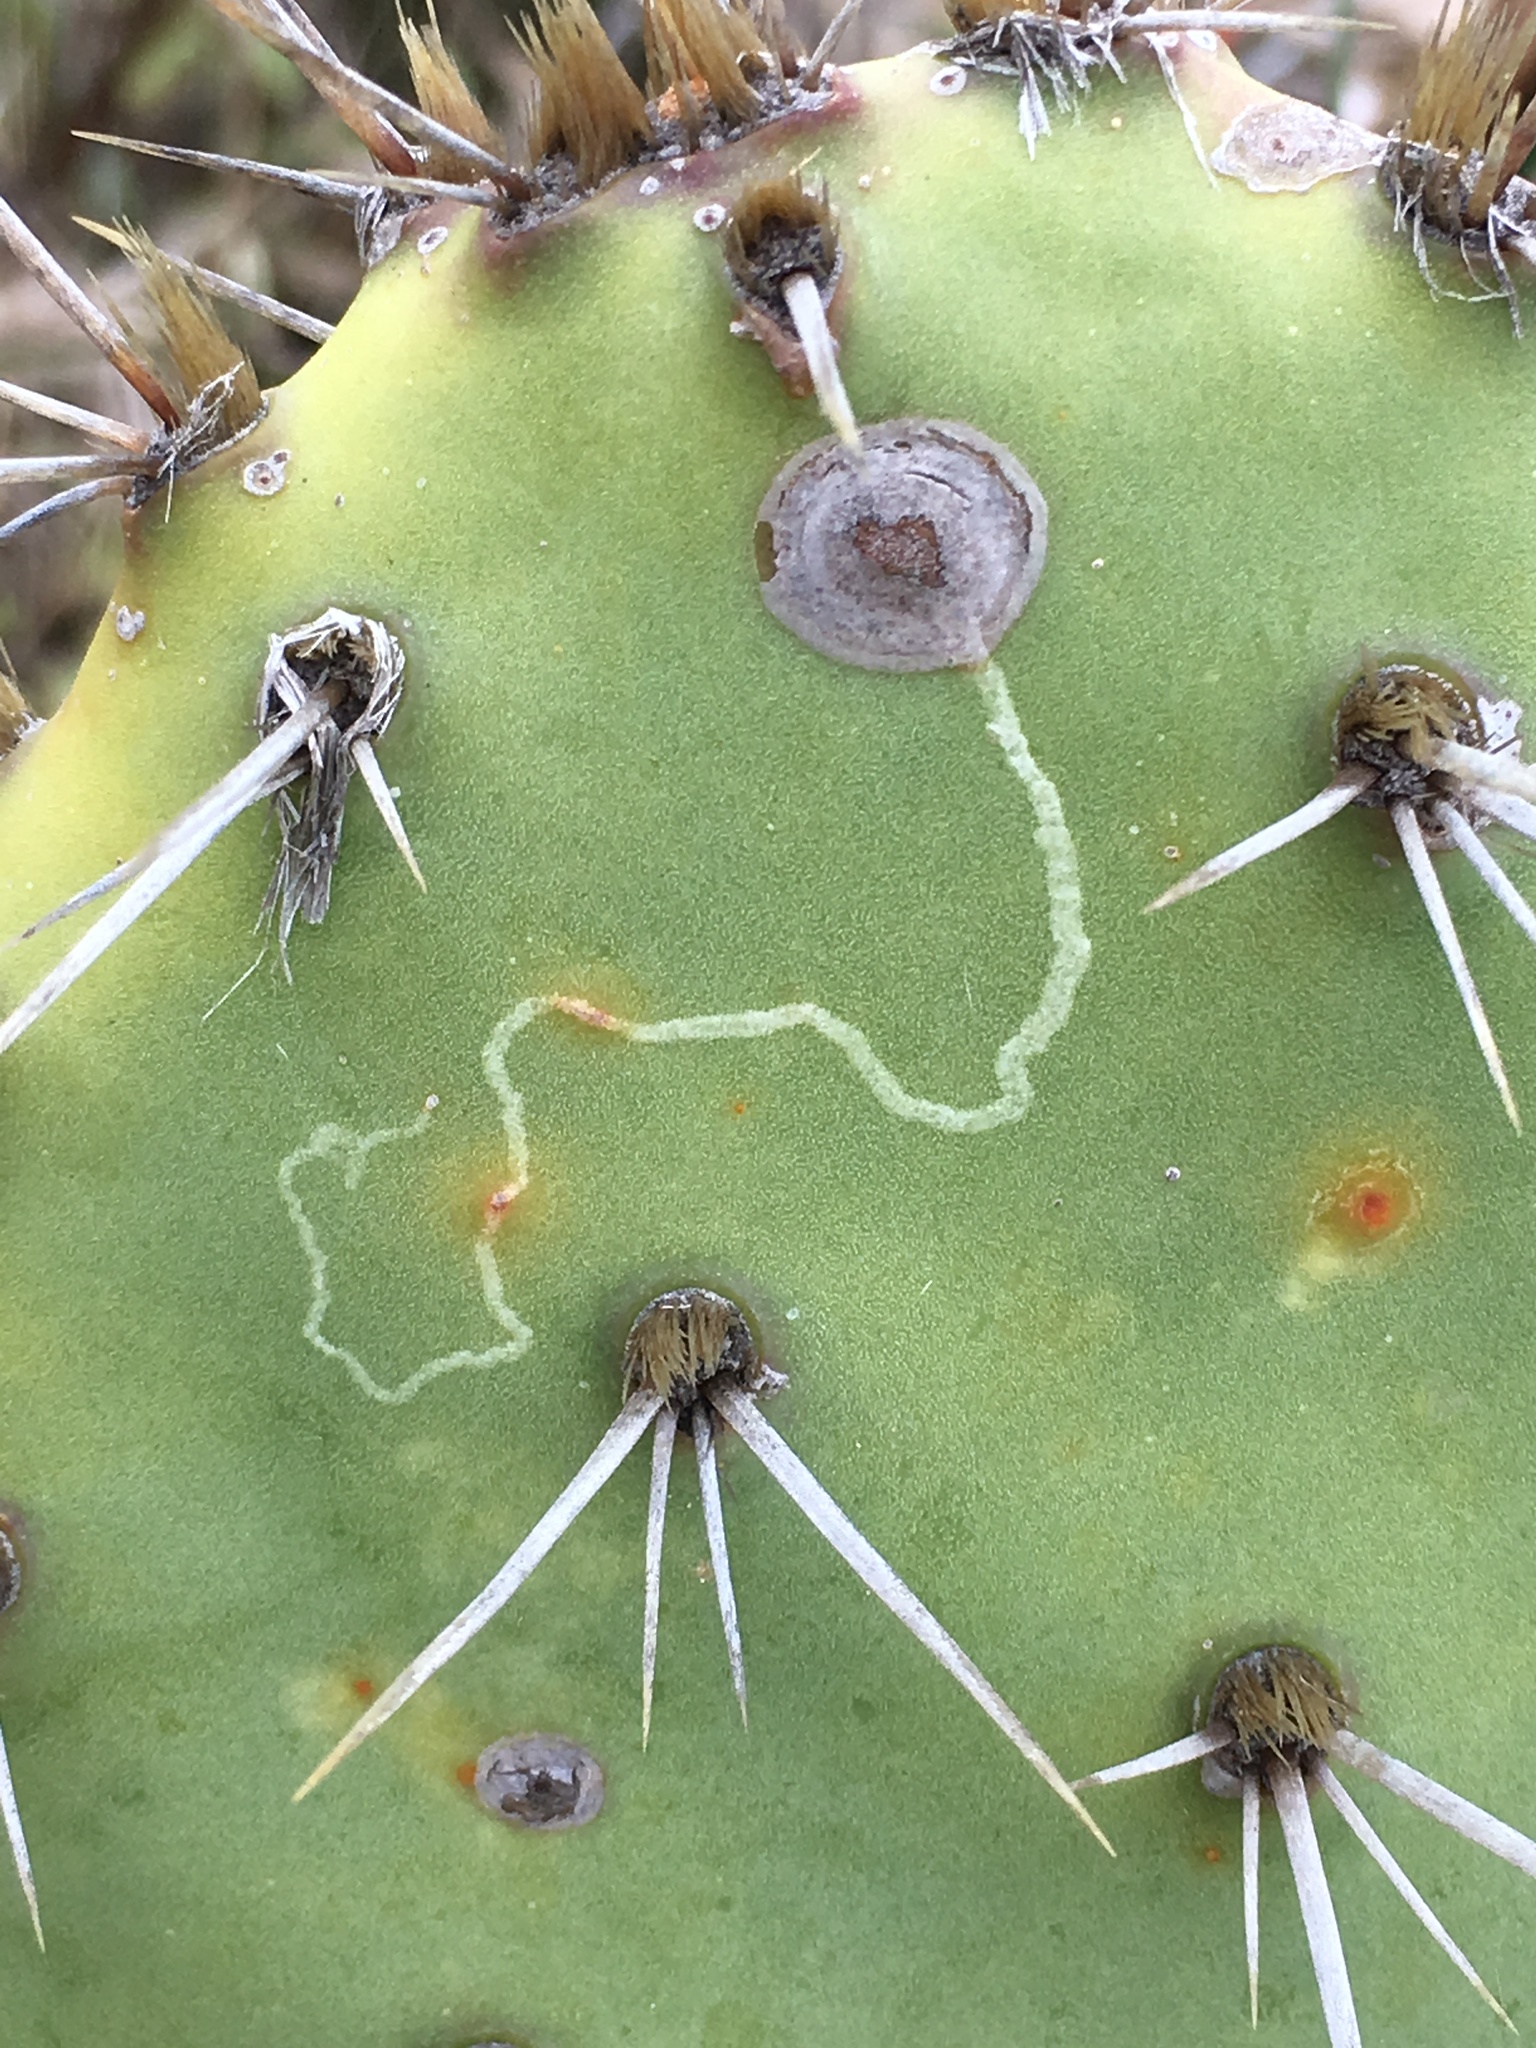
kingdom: Animalia
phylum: Arthropoda
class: Insecta
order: Lepidoptera
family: Gracillariidae
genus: Marmara
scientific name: Marmara opuntiella
